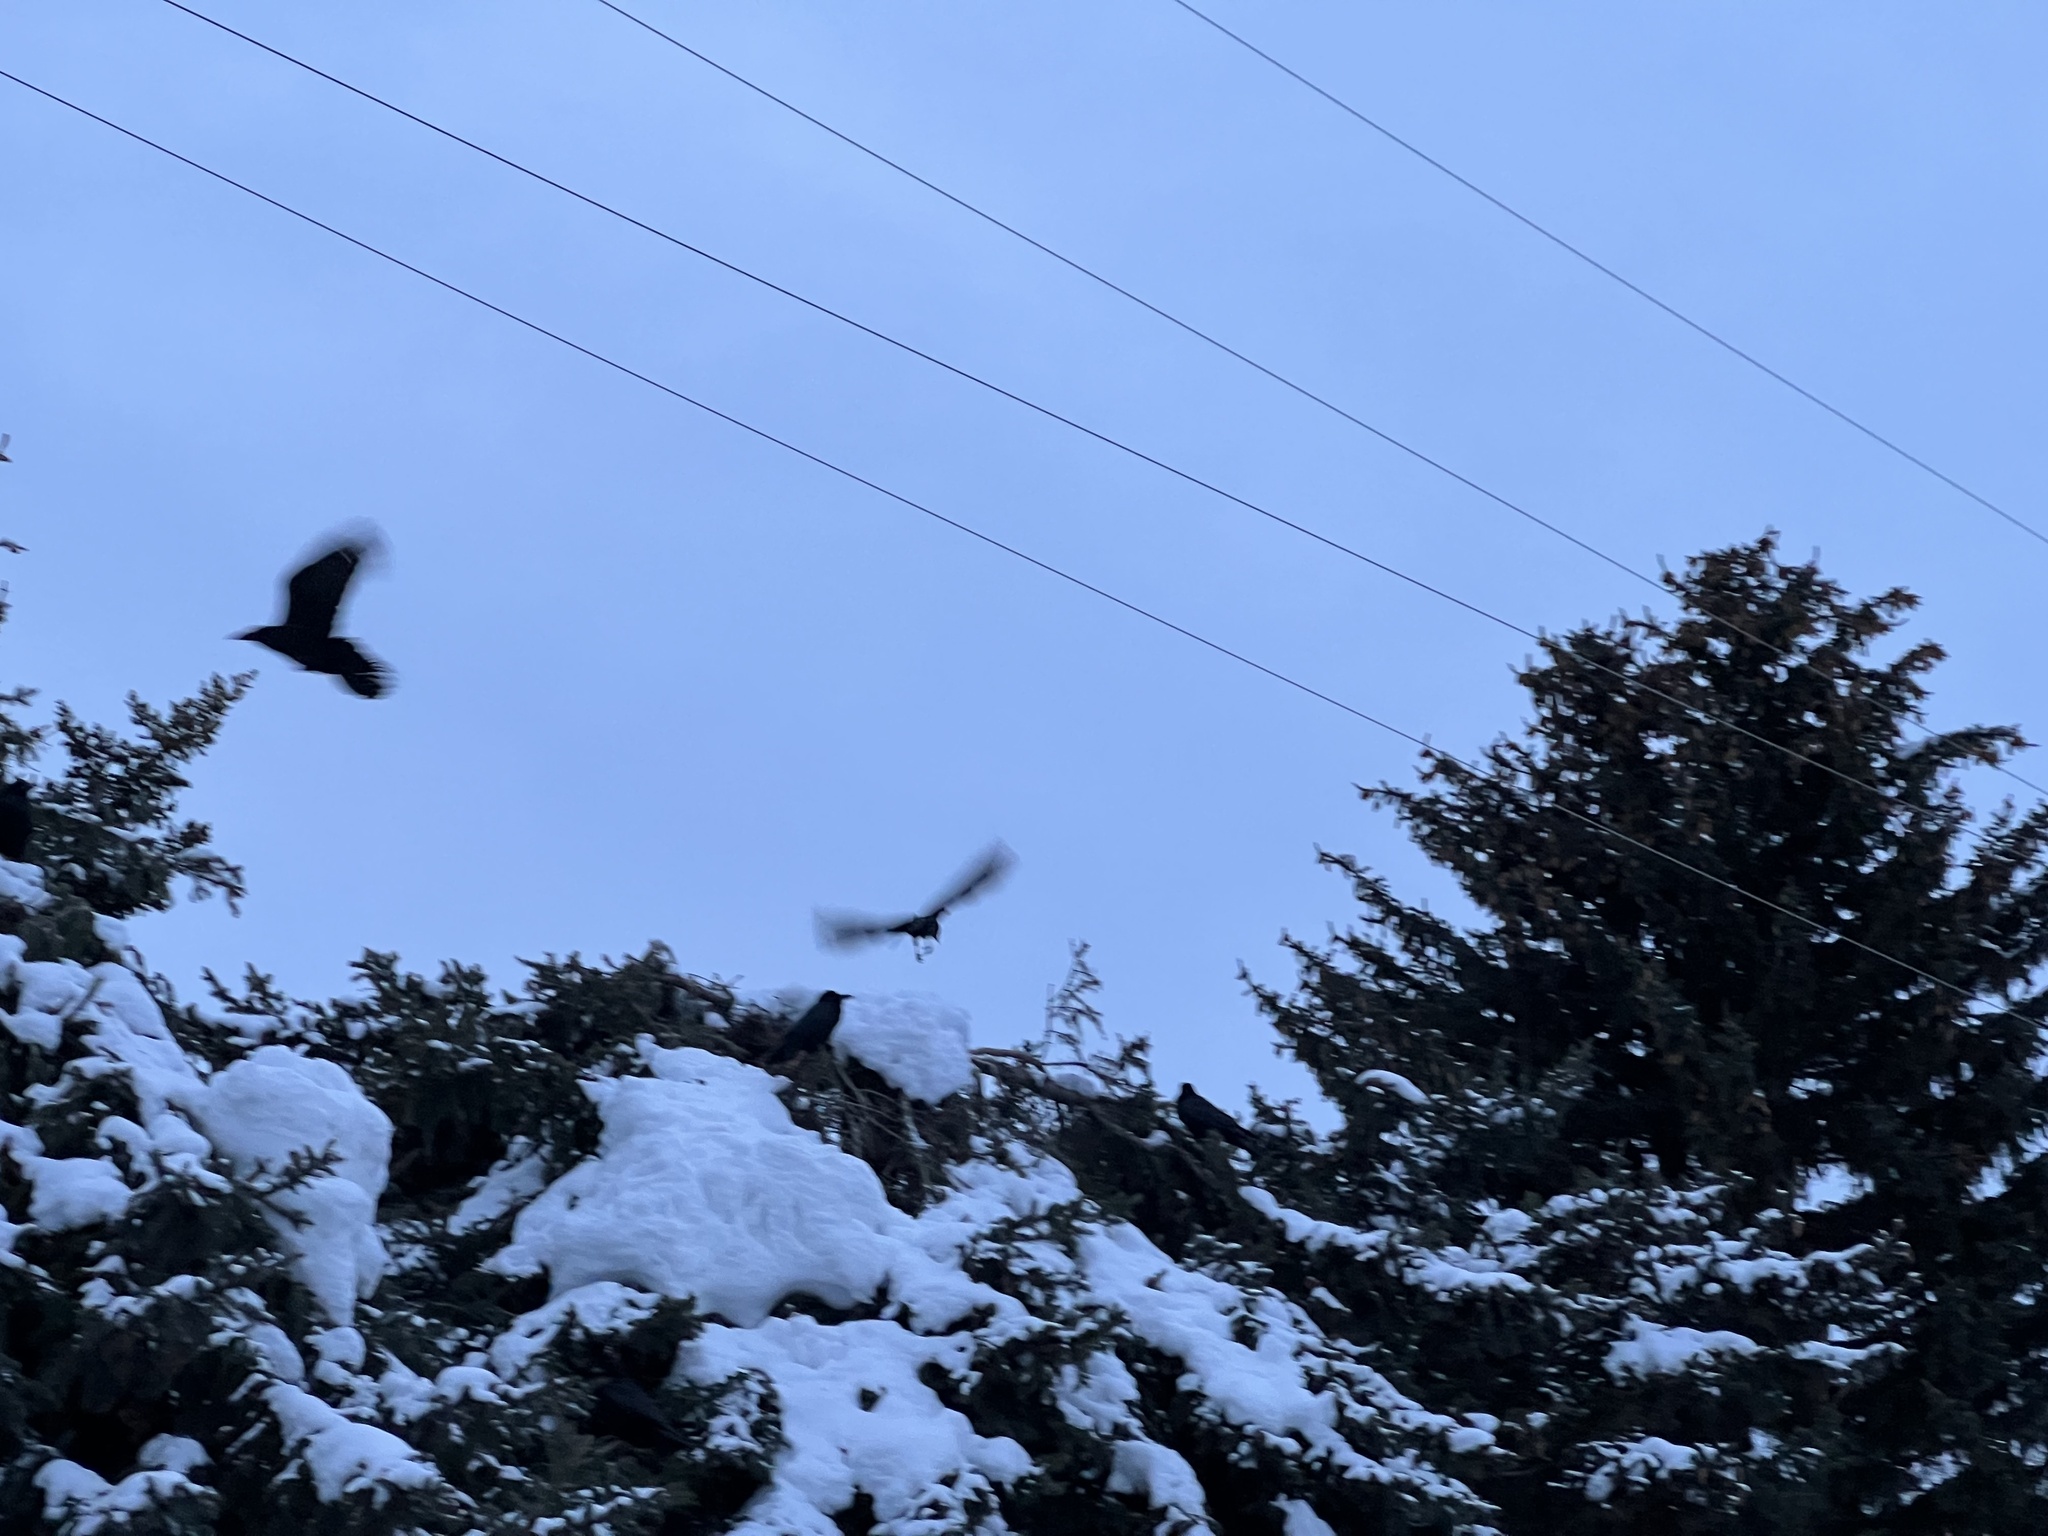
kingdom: Animalia
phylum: Chordata
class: Aves
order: Passeriformes
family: Corvidae
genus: Corvus
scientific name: Corvus corax
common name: Common raven
